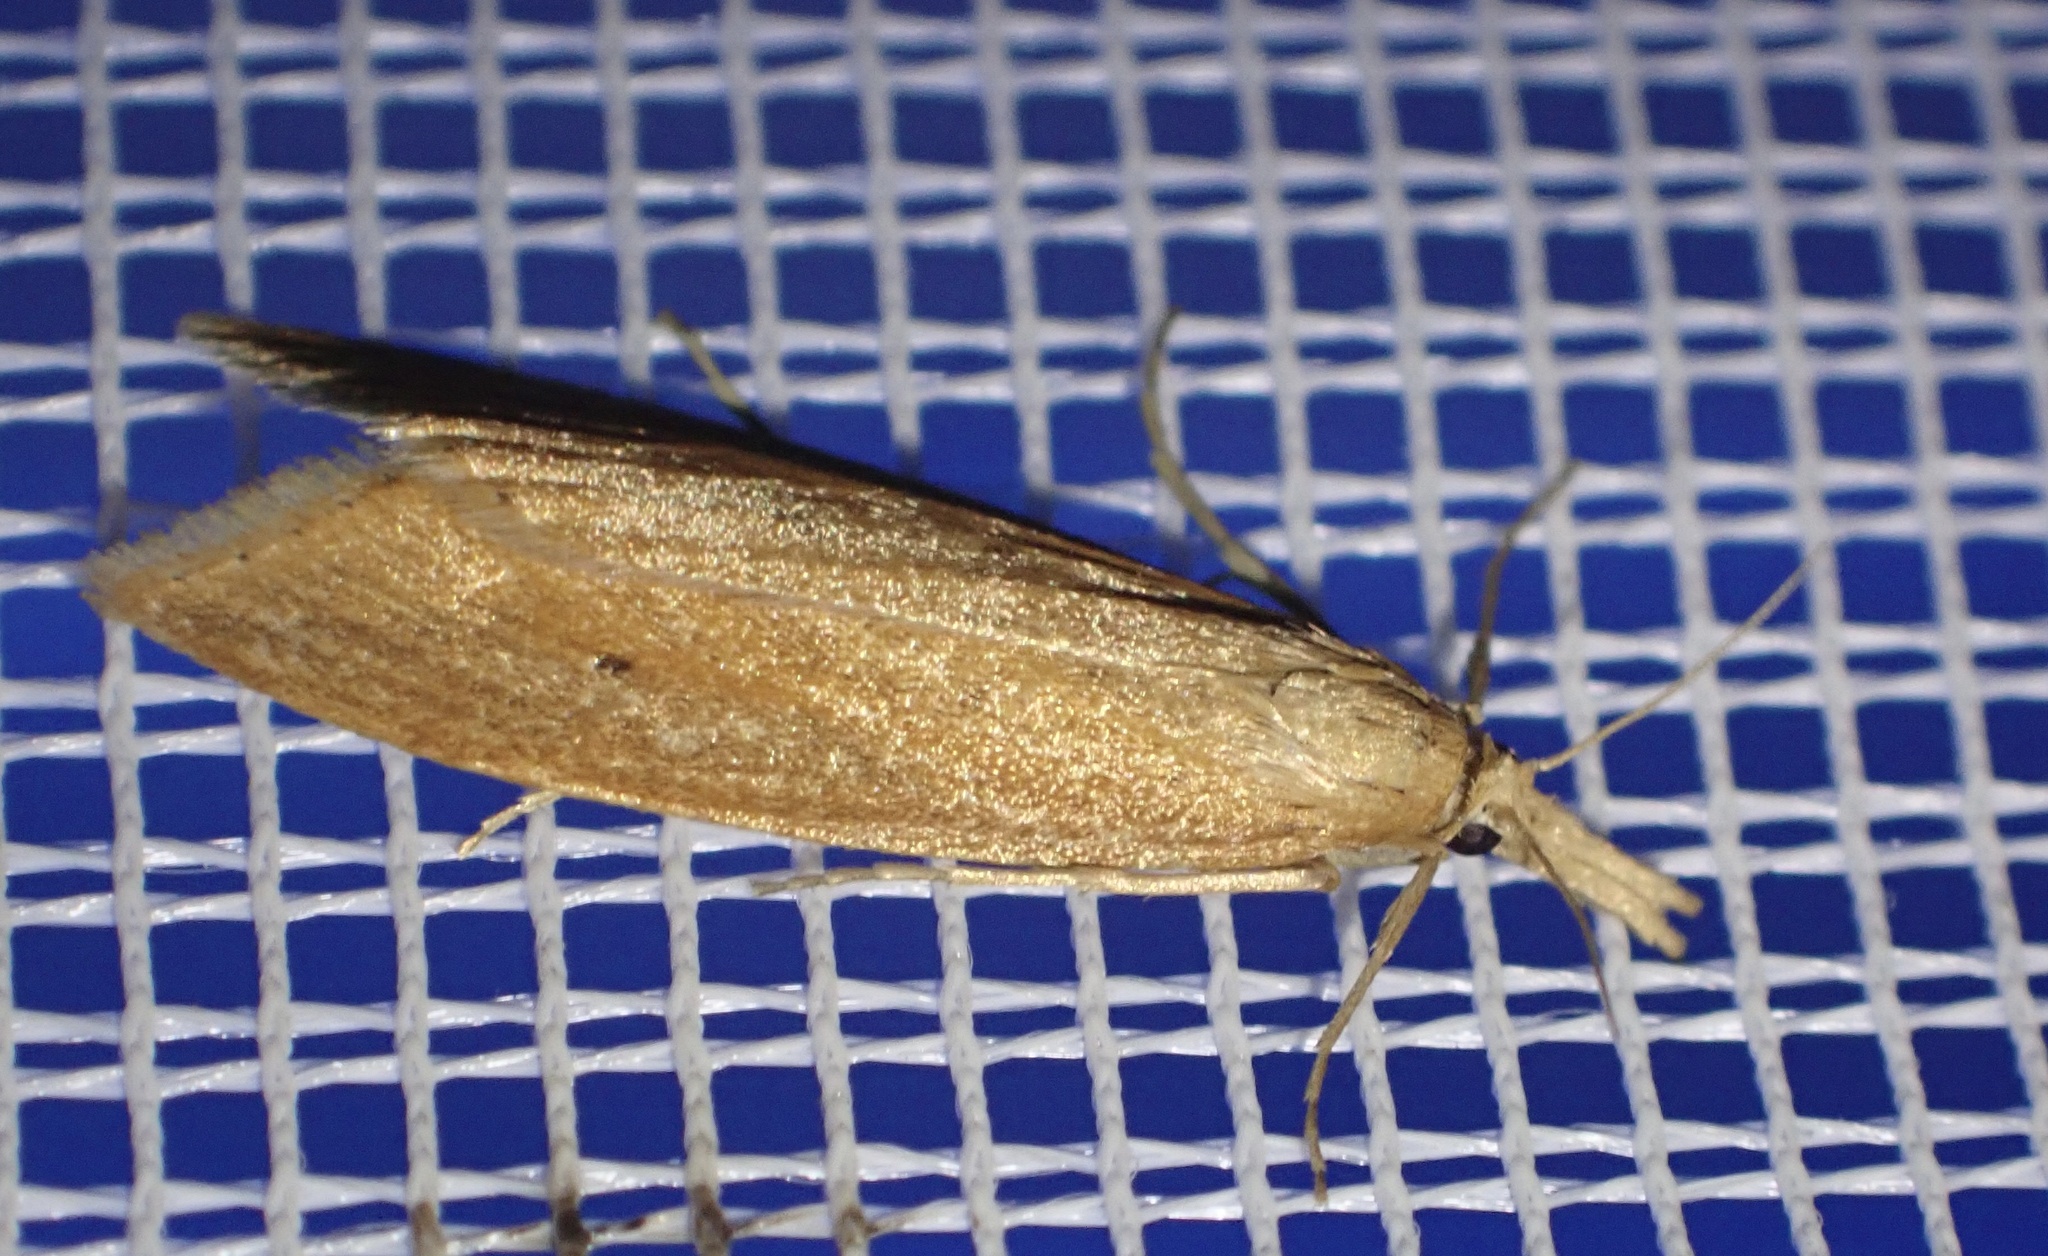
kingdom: Animalia
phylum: Arthropoda
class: Insecta
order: Lepidoptera
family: Crambidae
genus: Chilo
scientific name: Chilo phragmitella
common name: Reed veneer
